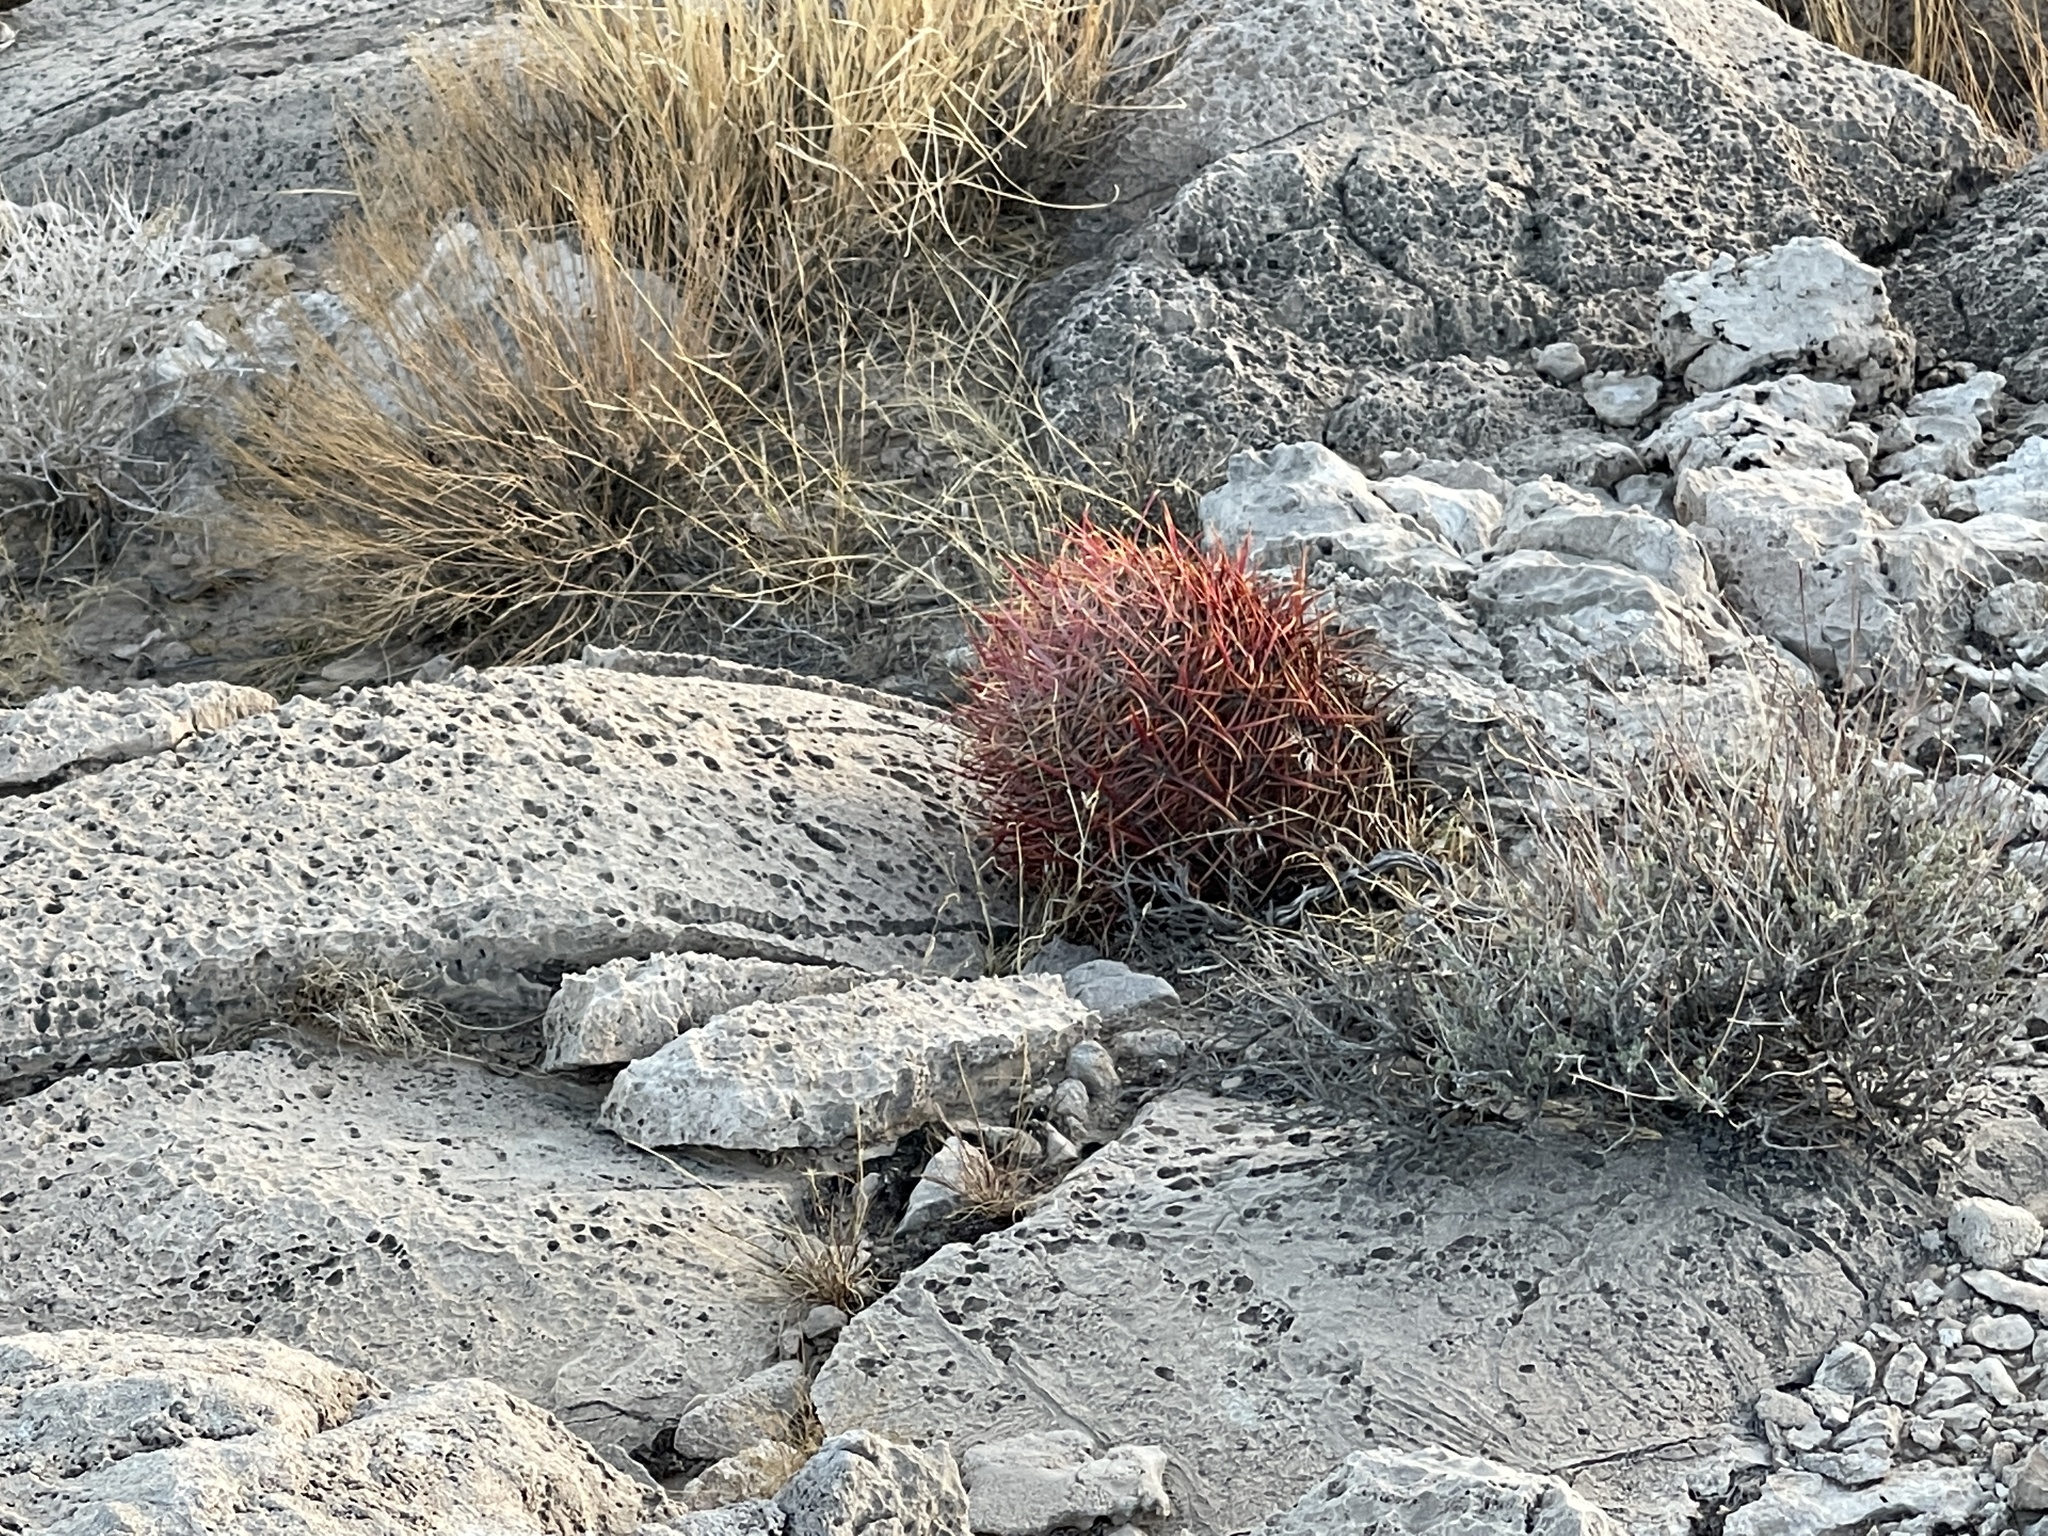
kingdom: Plantae
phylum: Tracheophyta
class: Magnoliopsida
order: Caryophyllales
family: Cactaceae
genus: Ferocactus
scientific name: Ferocactus cylindraceus
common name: California barrel cactus
